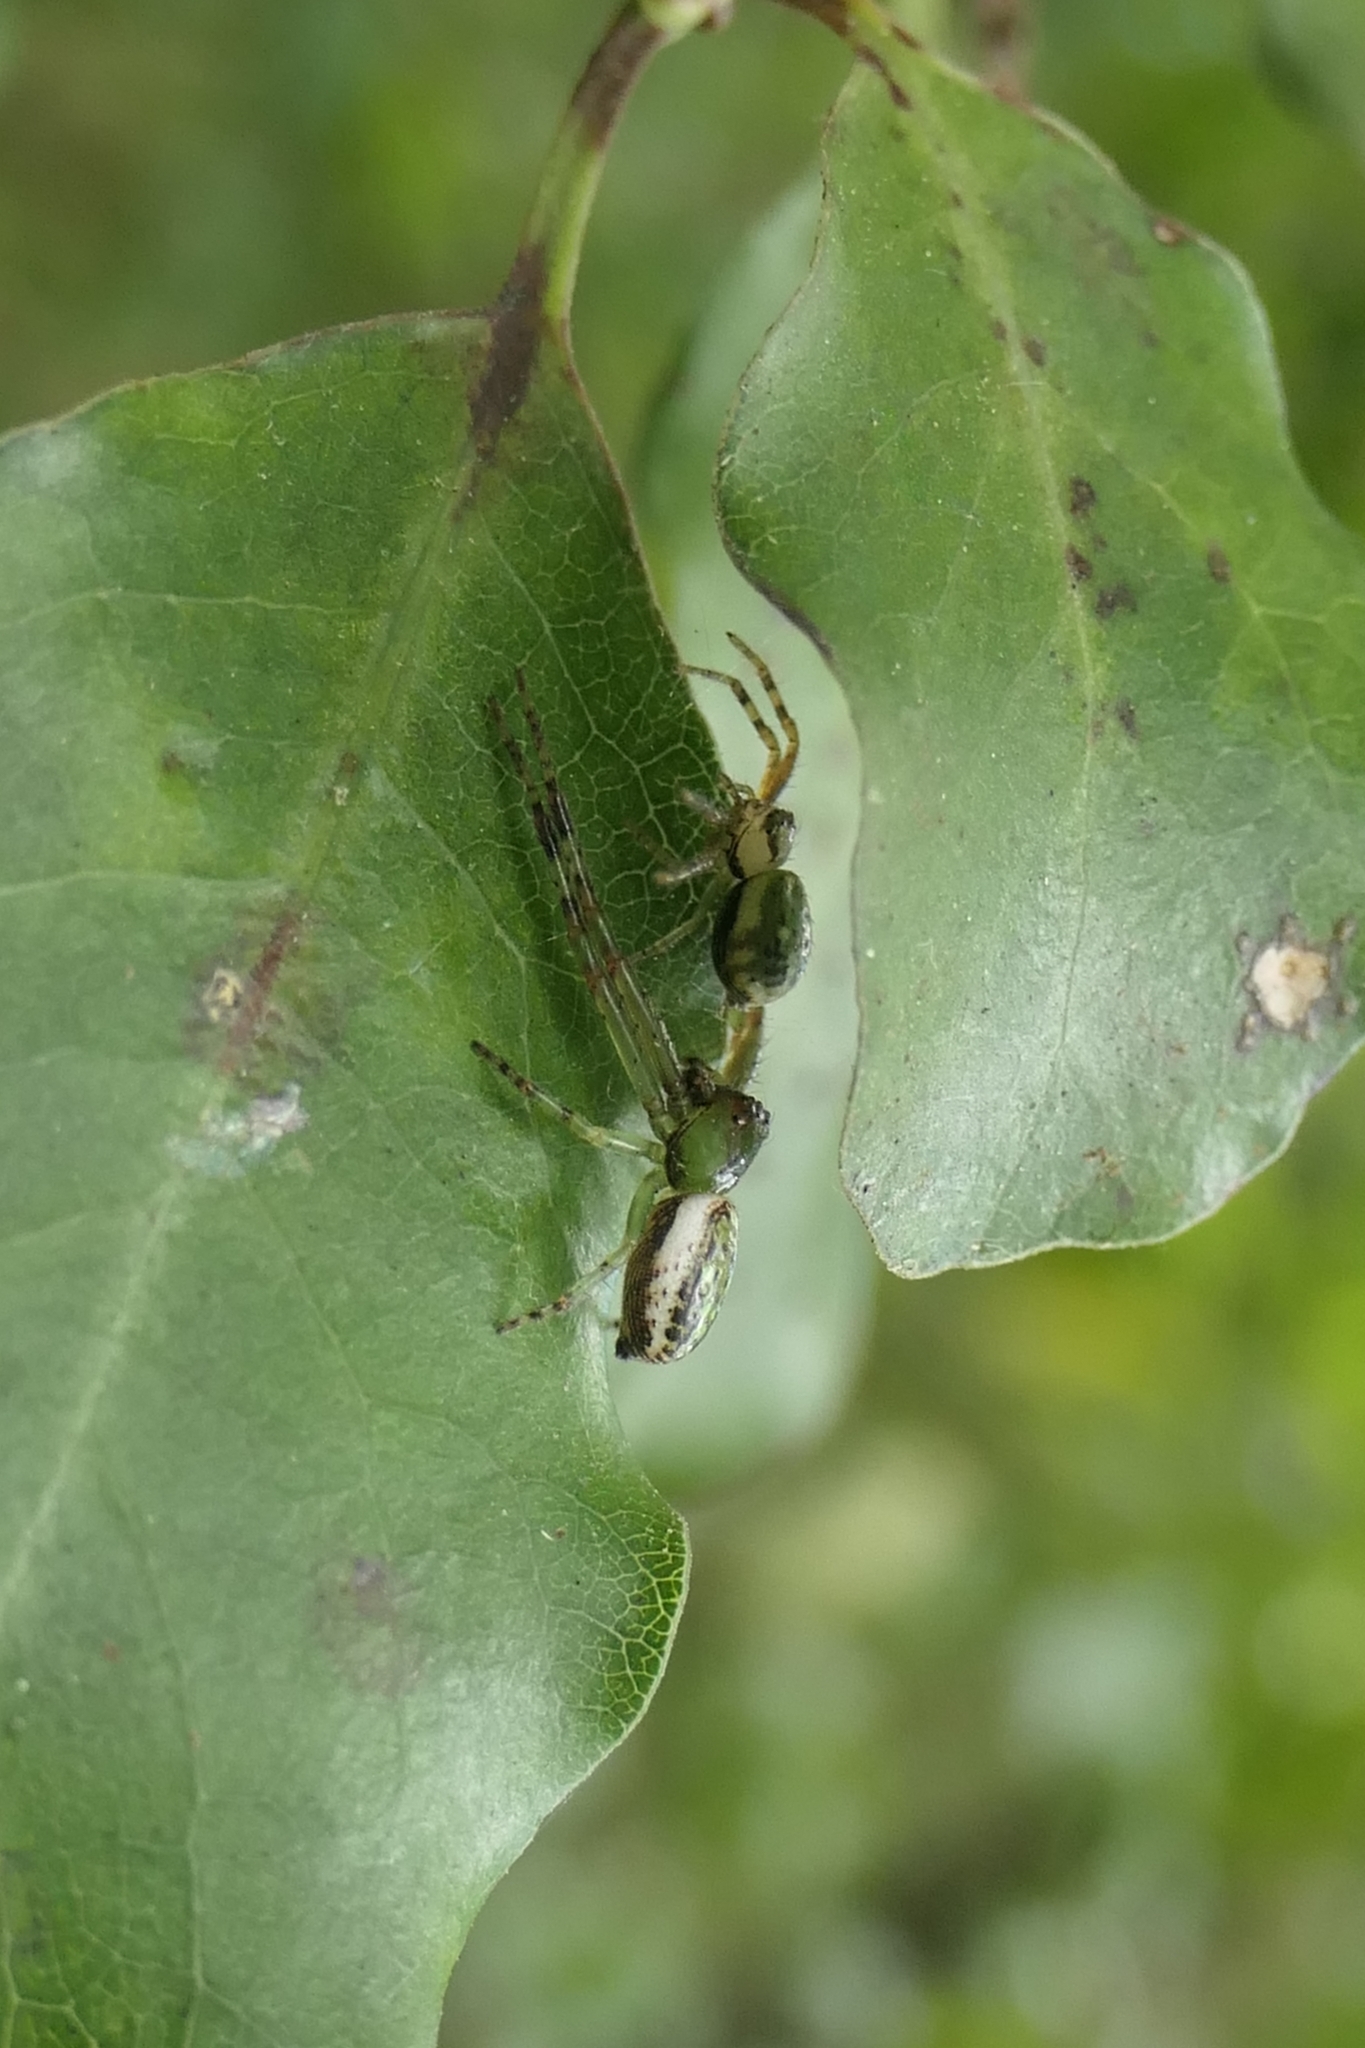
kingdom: Animalia
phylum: Arthropoda
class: Arachnida
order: Araneae
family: Thomisidae
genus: Diaea
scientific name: Diaea ambara
